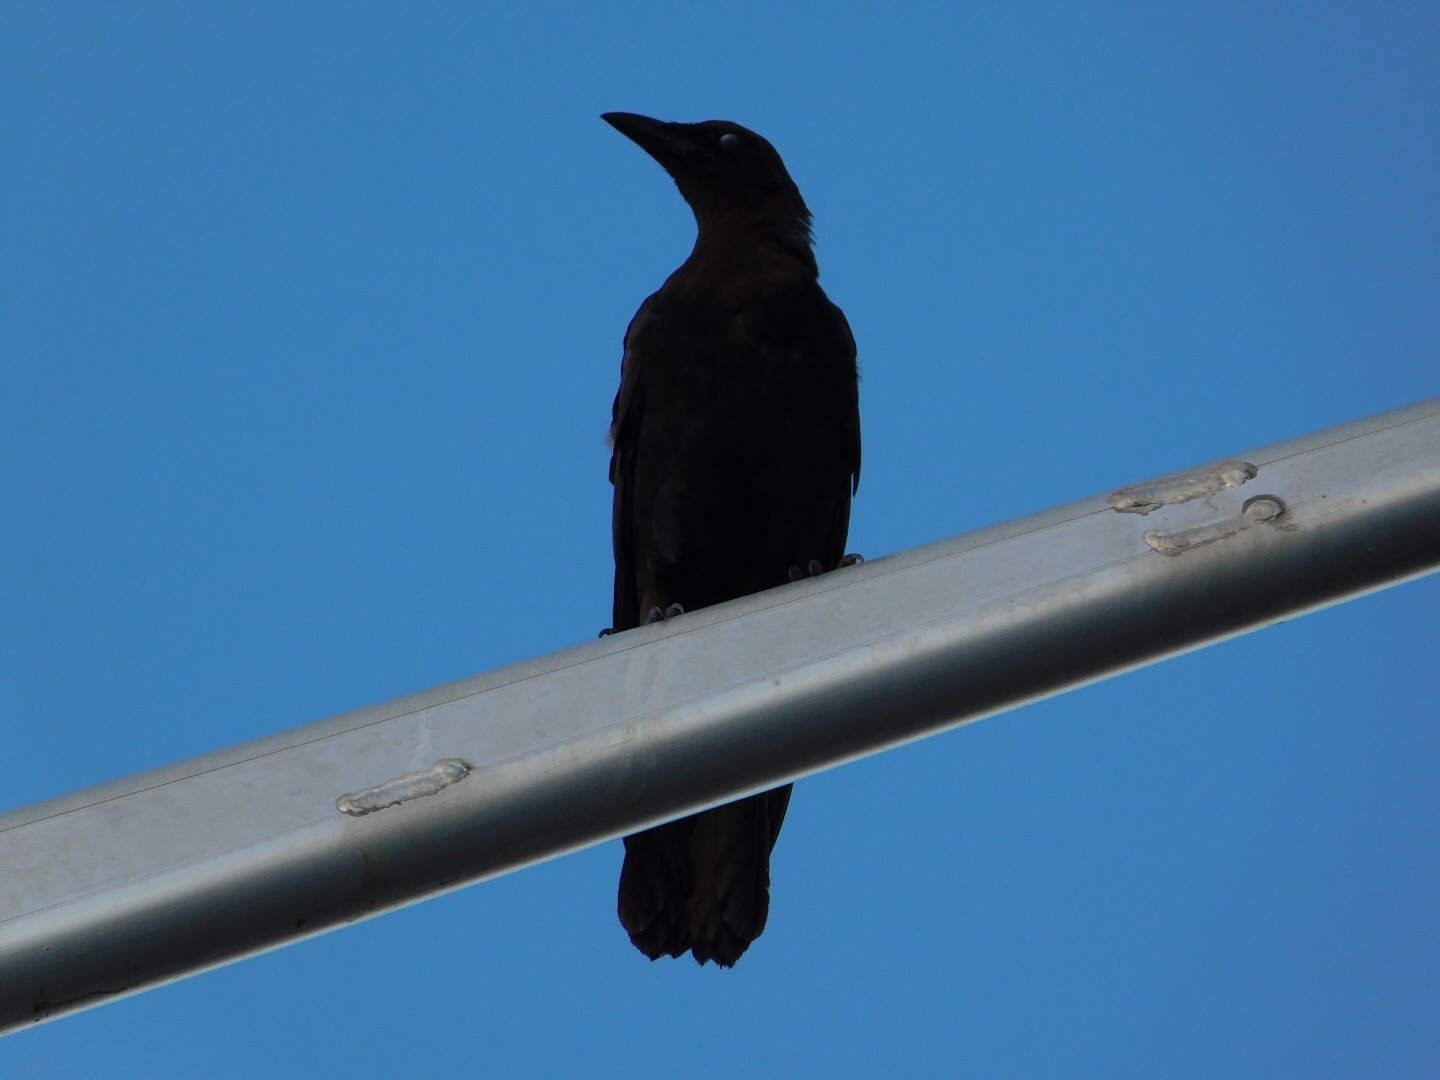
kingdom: Animalia
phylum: Chordata
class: Aves
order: Passeriformes
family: Corvidae
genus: Corvus
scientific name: Corvus brachyrhynchos
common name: American crow
